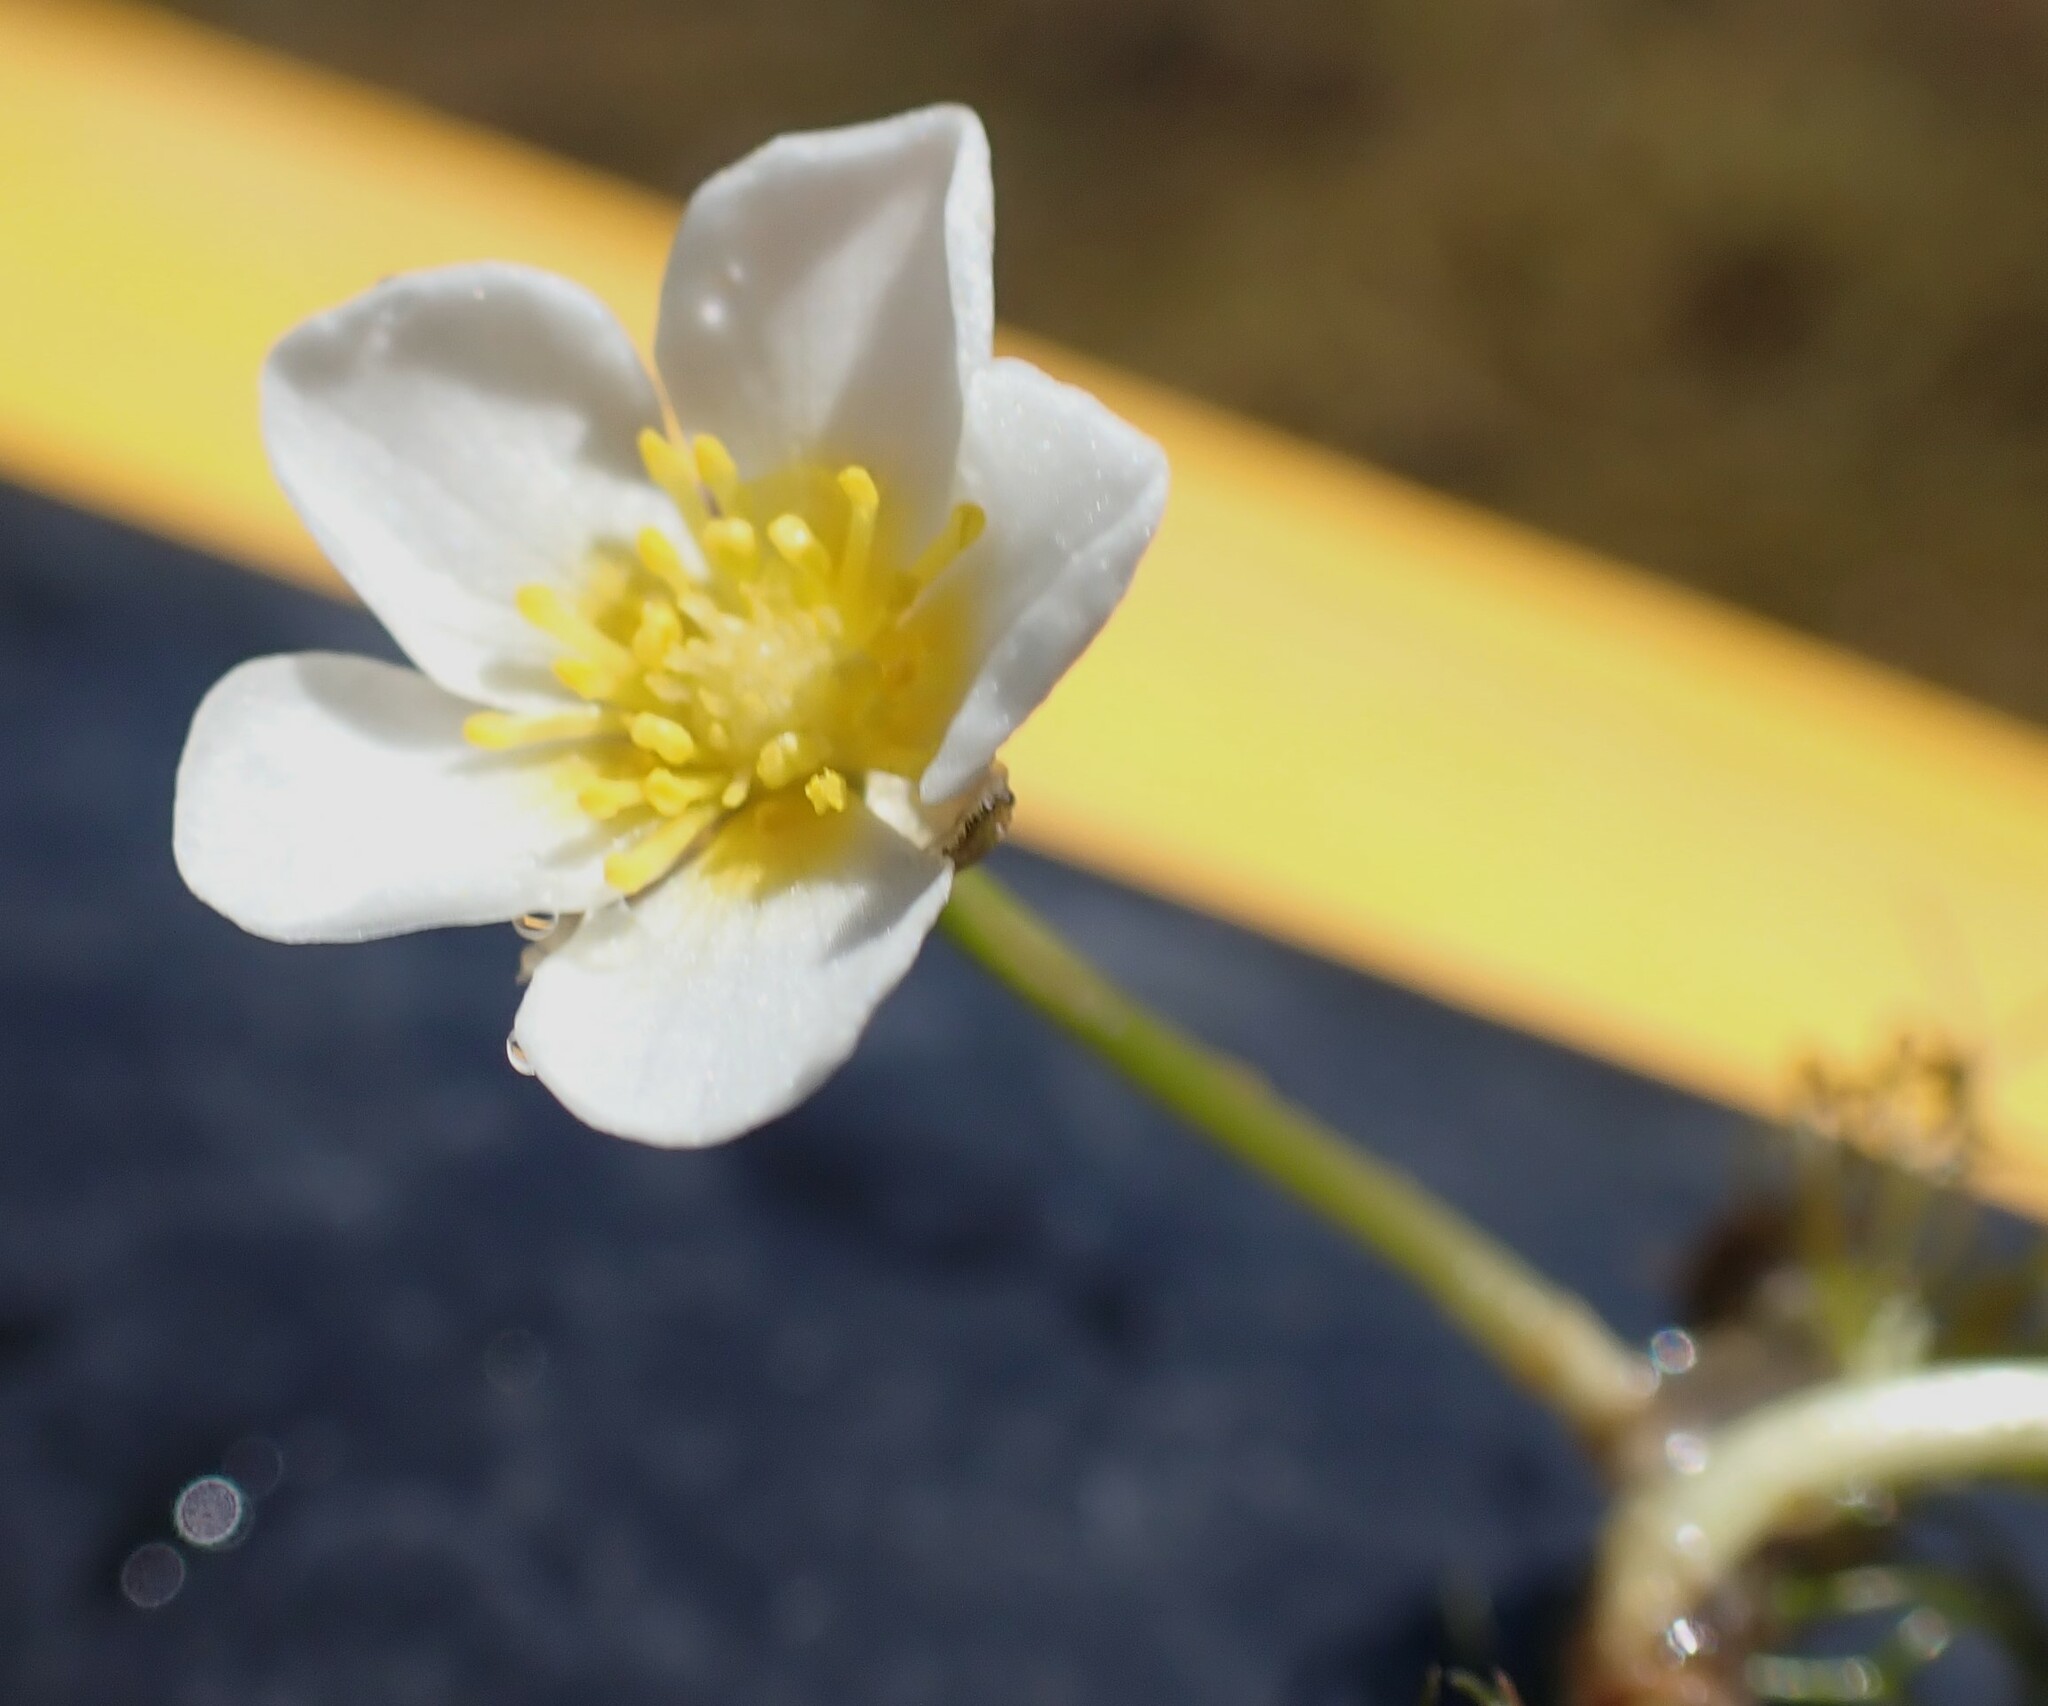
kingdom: Plantae
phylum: Tracheophyta
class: Magnoliopsida
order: Ranunculales
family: Ranunculaceae
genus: Ranunculus
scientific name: Ranunculus longirostris
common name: Curly white water-crowfoot
